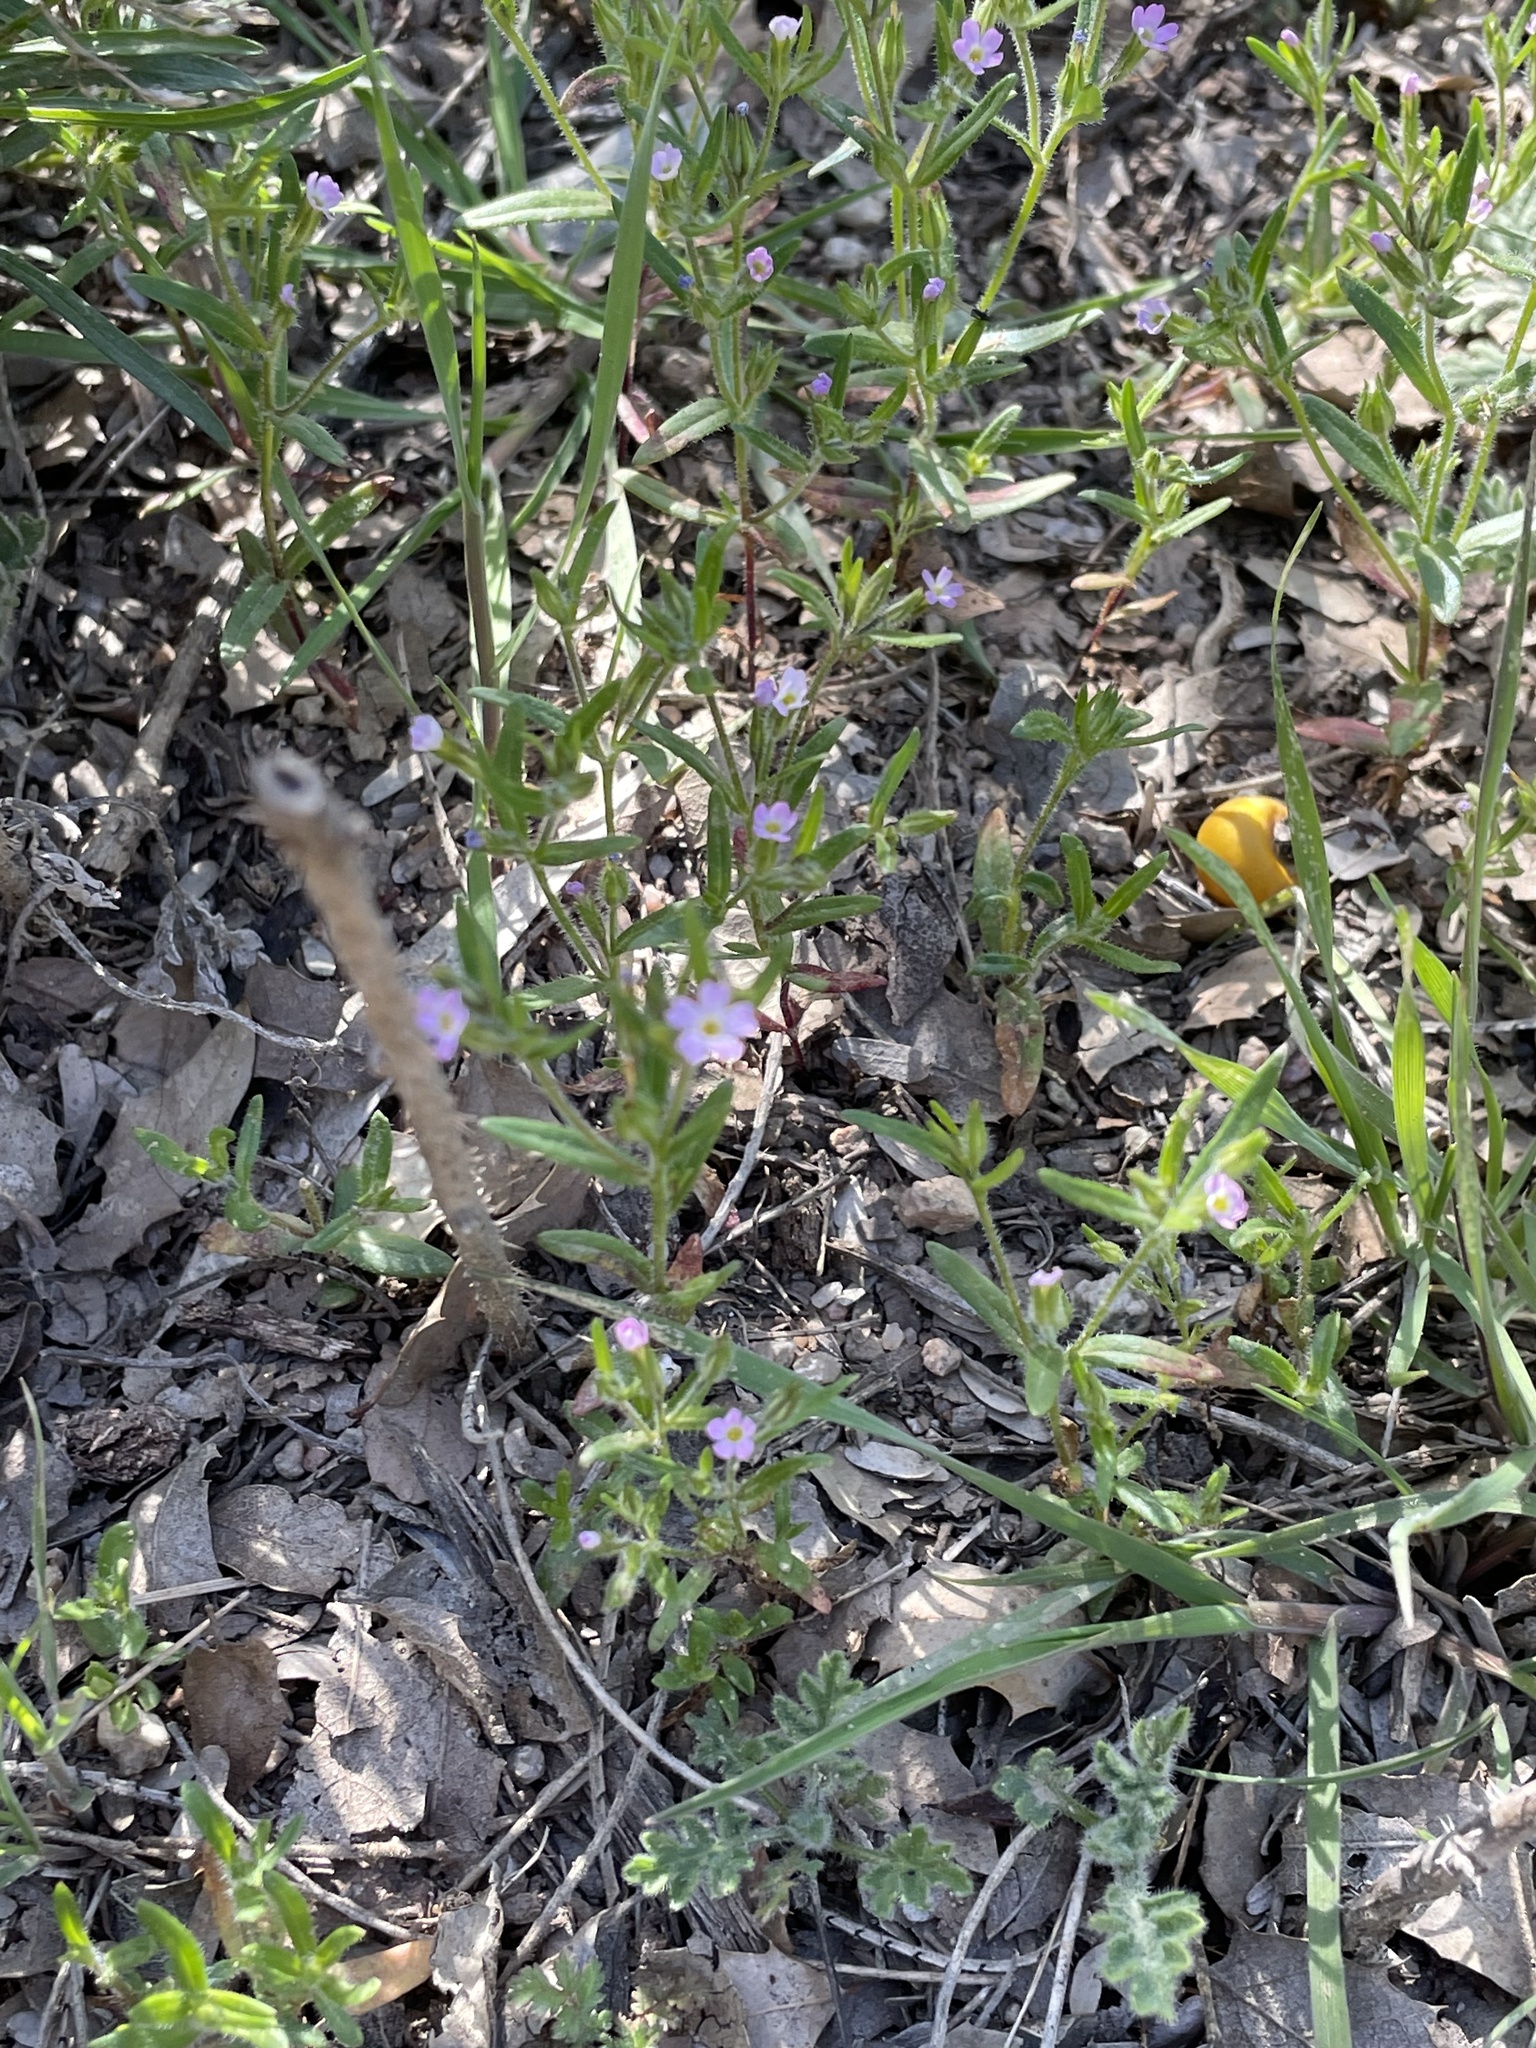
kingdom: Plantae
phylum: Tracheophyta
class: Magnoliopsida
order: Ericales
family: Polemoniaceae
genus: Phlox
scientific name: Phlox gracilis
